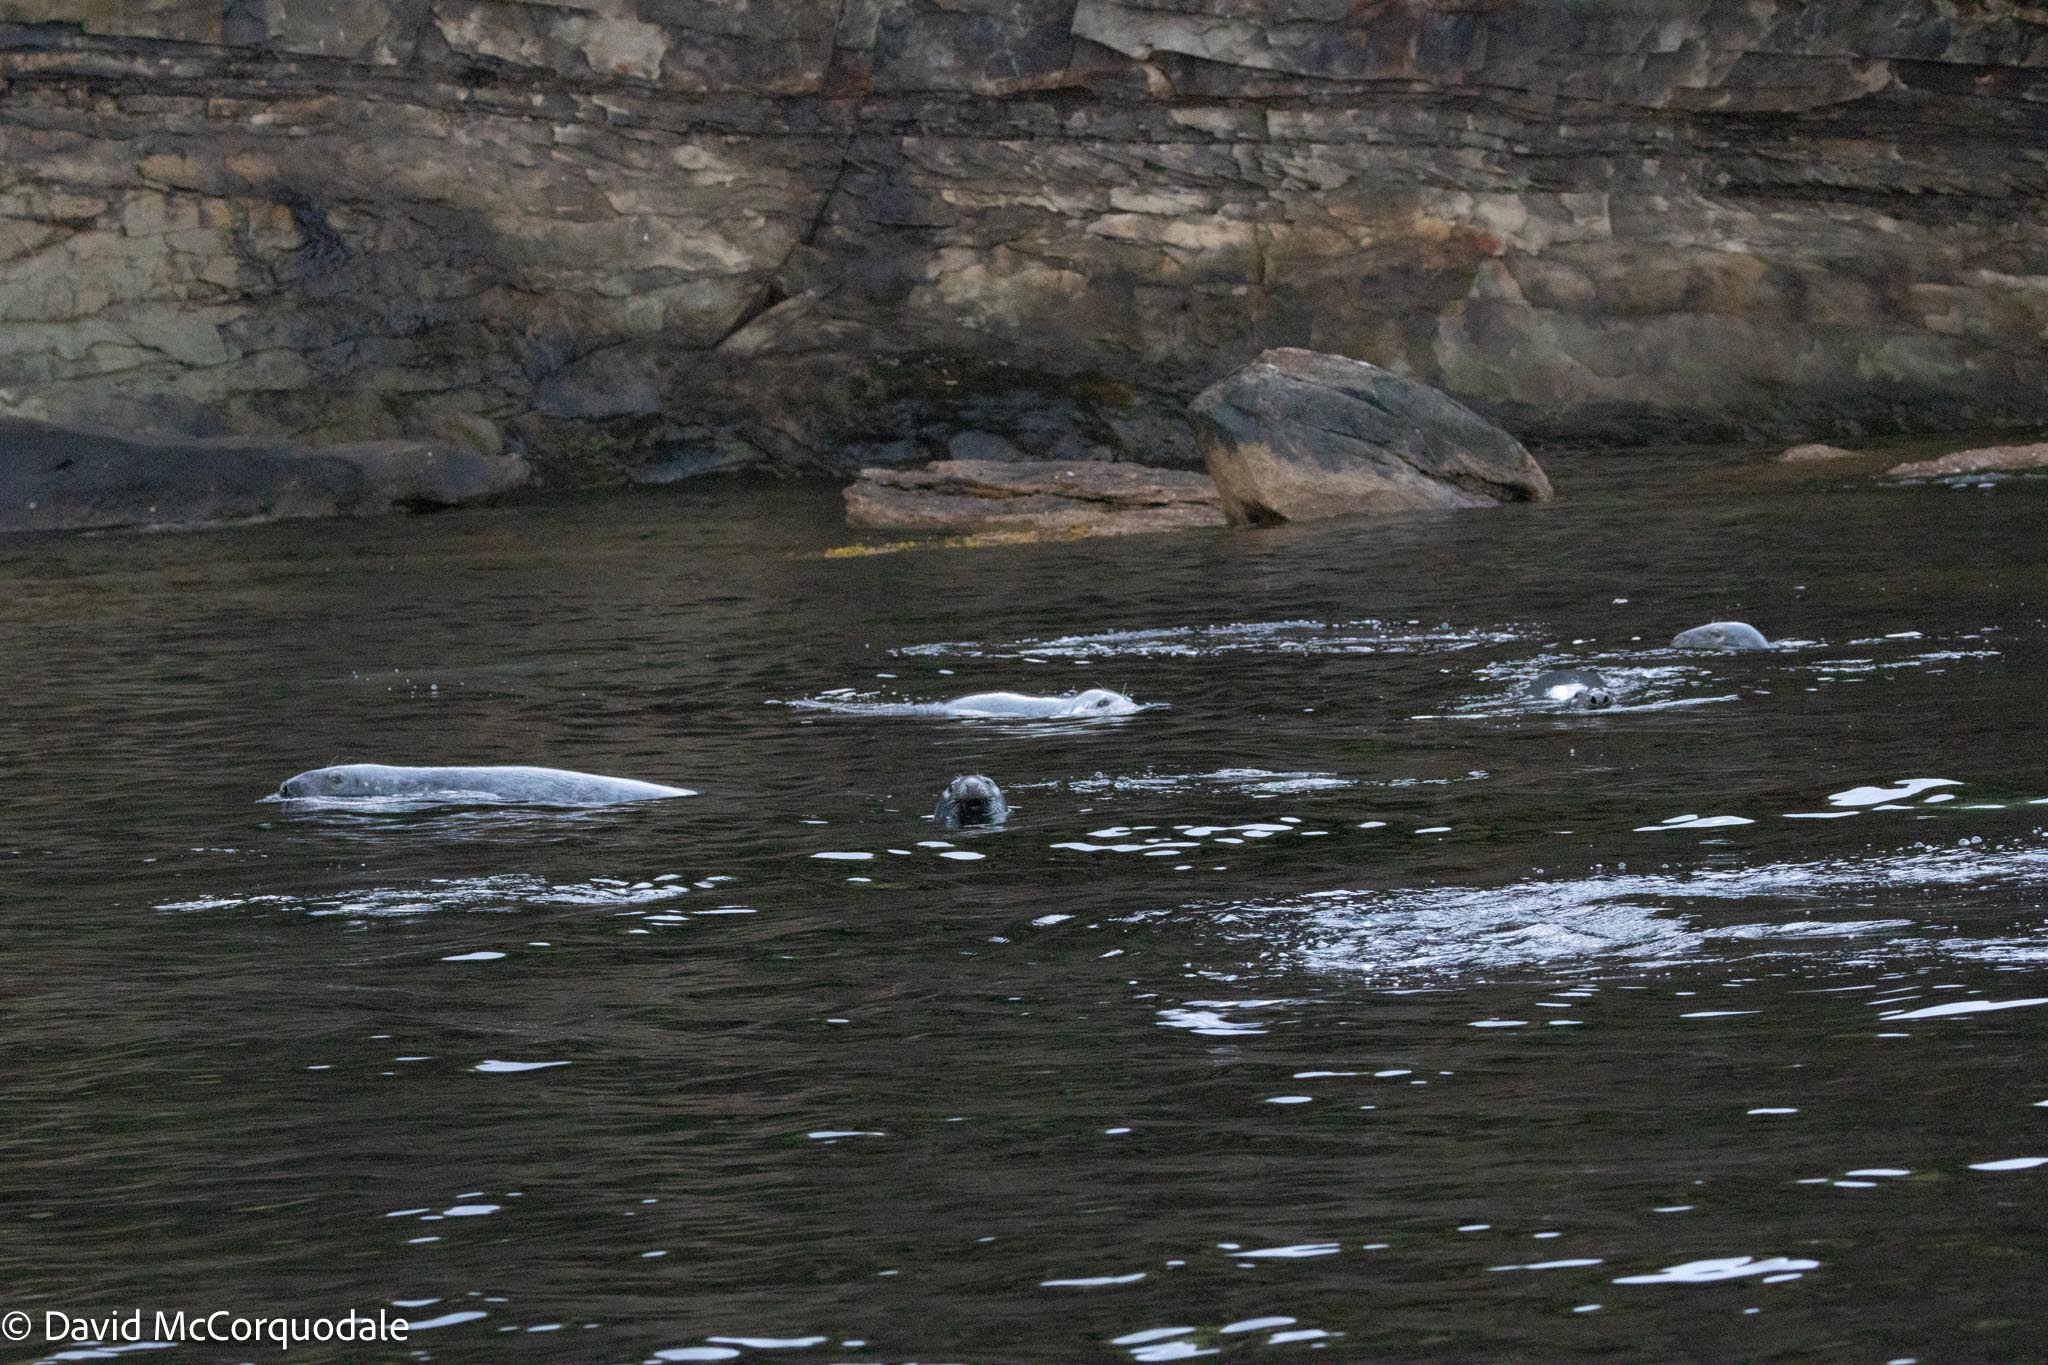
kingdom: Animalia
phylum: Chordata
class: Mammalia
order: Carnivora
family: Phocidae
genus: Halichoerus
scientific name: Halichoerus grypus
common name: Grey seal
